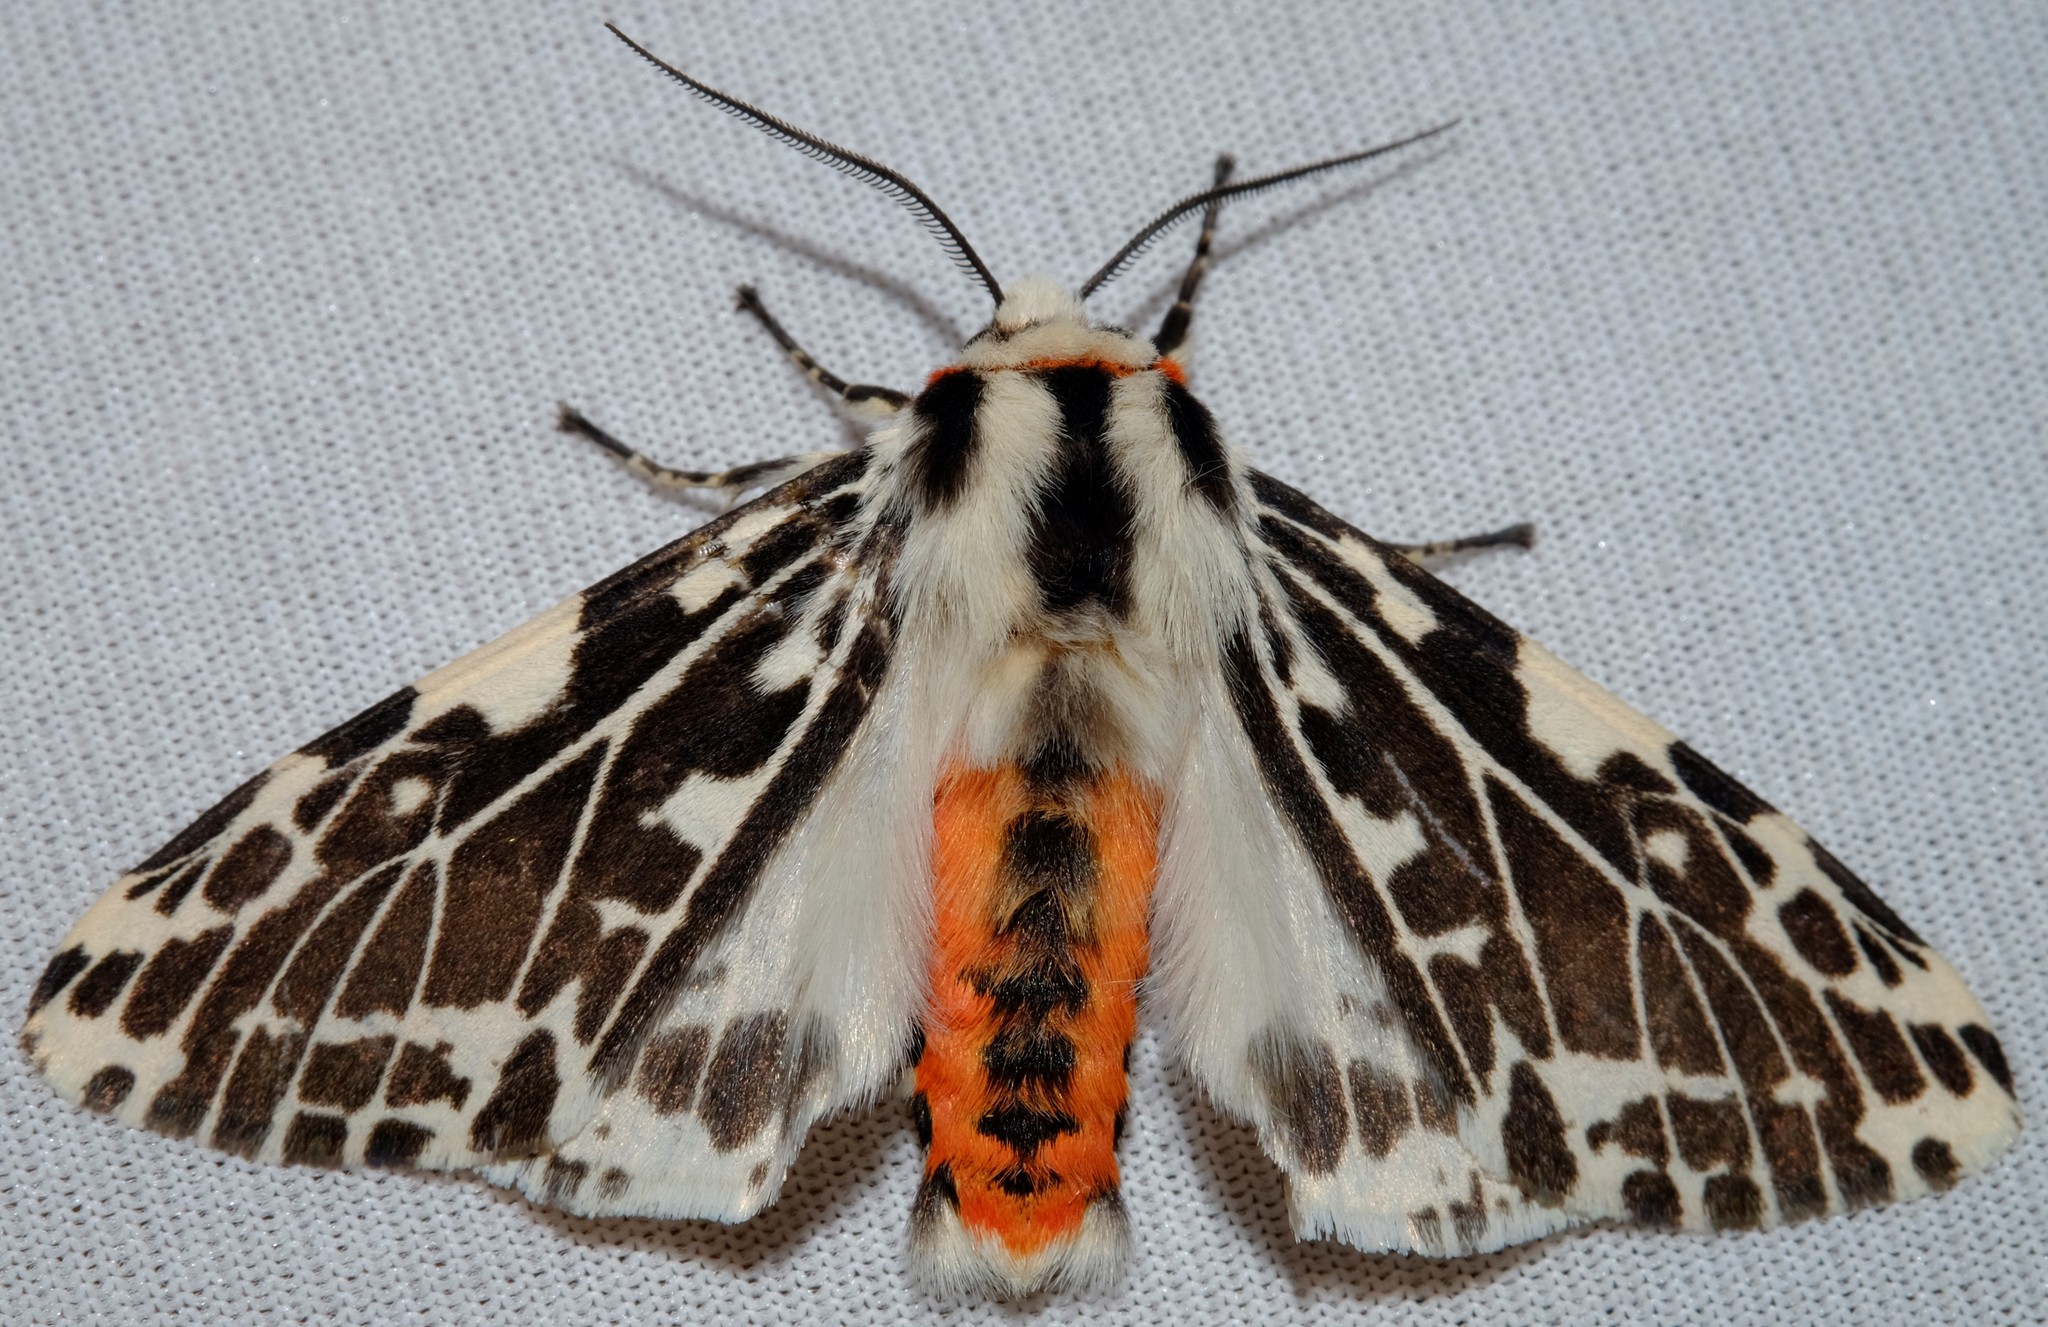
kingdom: Animalia
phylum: Arthropoda
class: Insecta
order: Lepidoptera
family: Erebidae
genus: Ardices
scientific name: Ardices glatignyi
